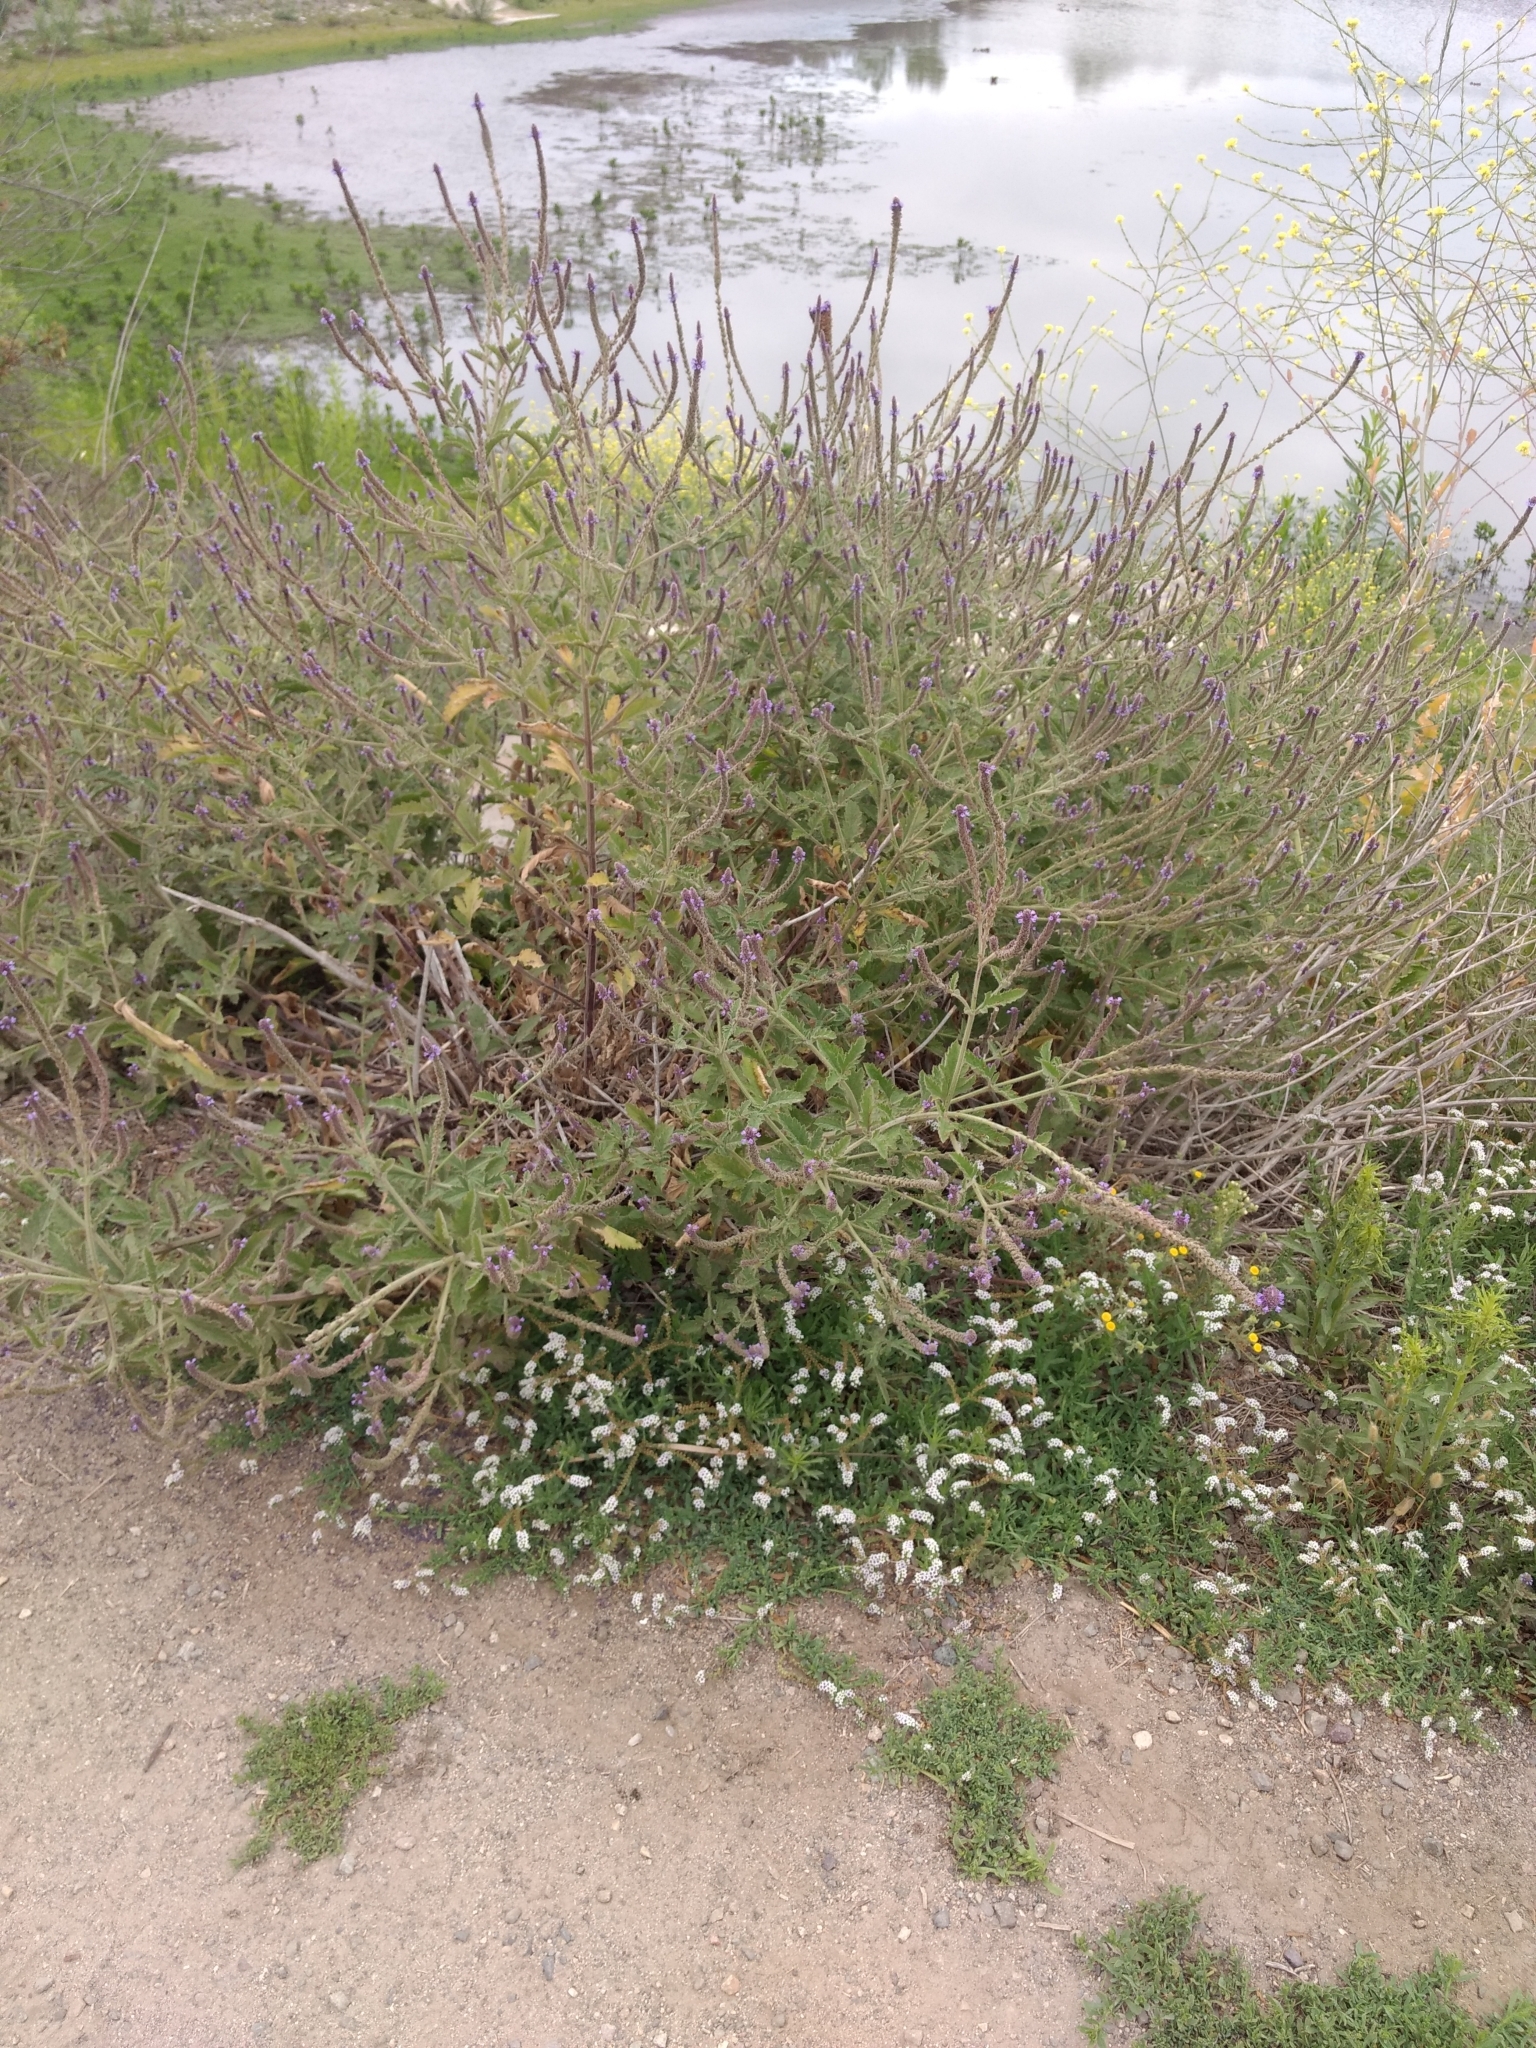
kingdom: Plantae
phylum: Tracheophyta
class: Magnoliopsida
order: Lamiales
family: Verbenaceae
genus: Verbena
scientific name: Verbena lasiostachys
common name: Vervain
